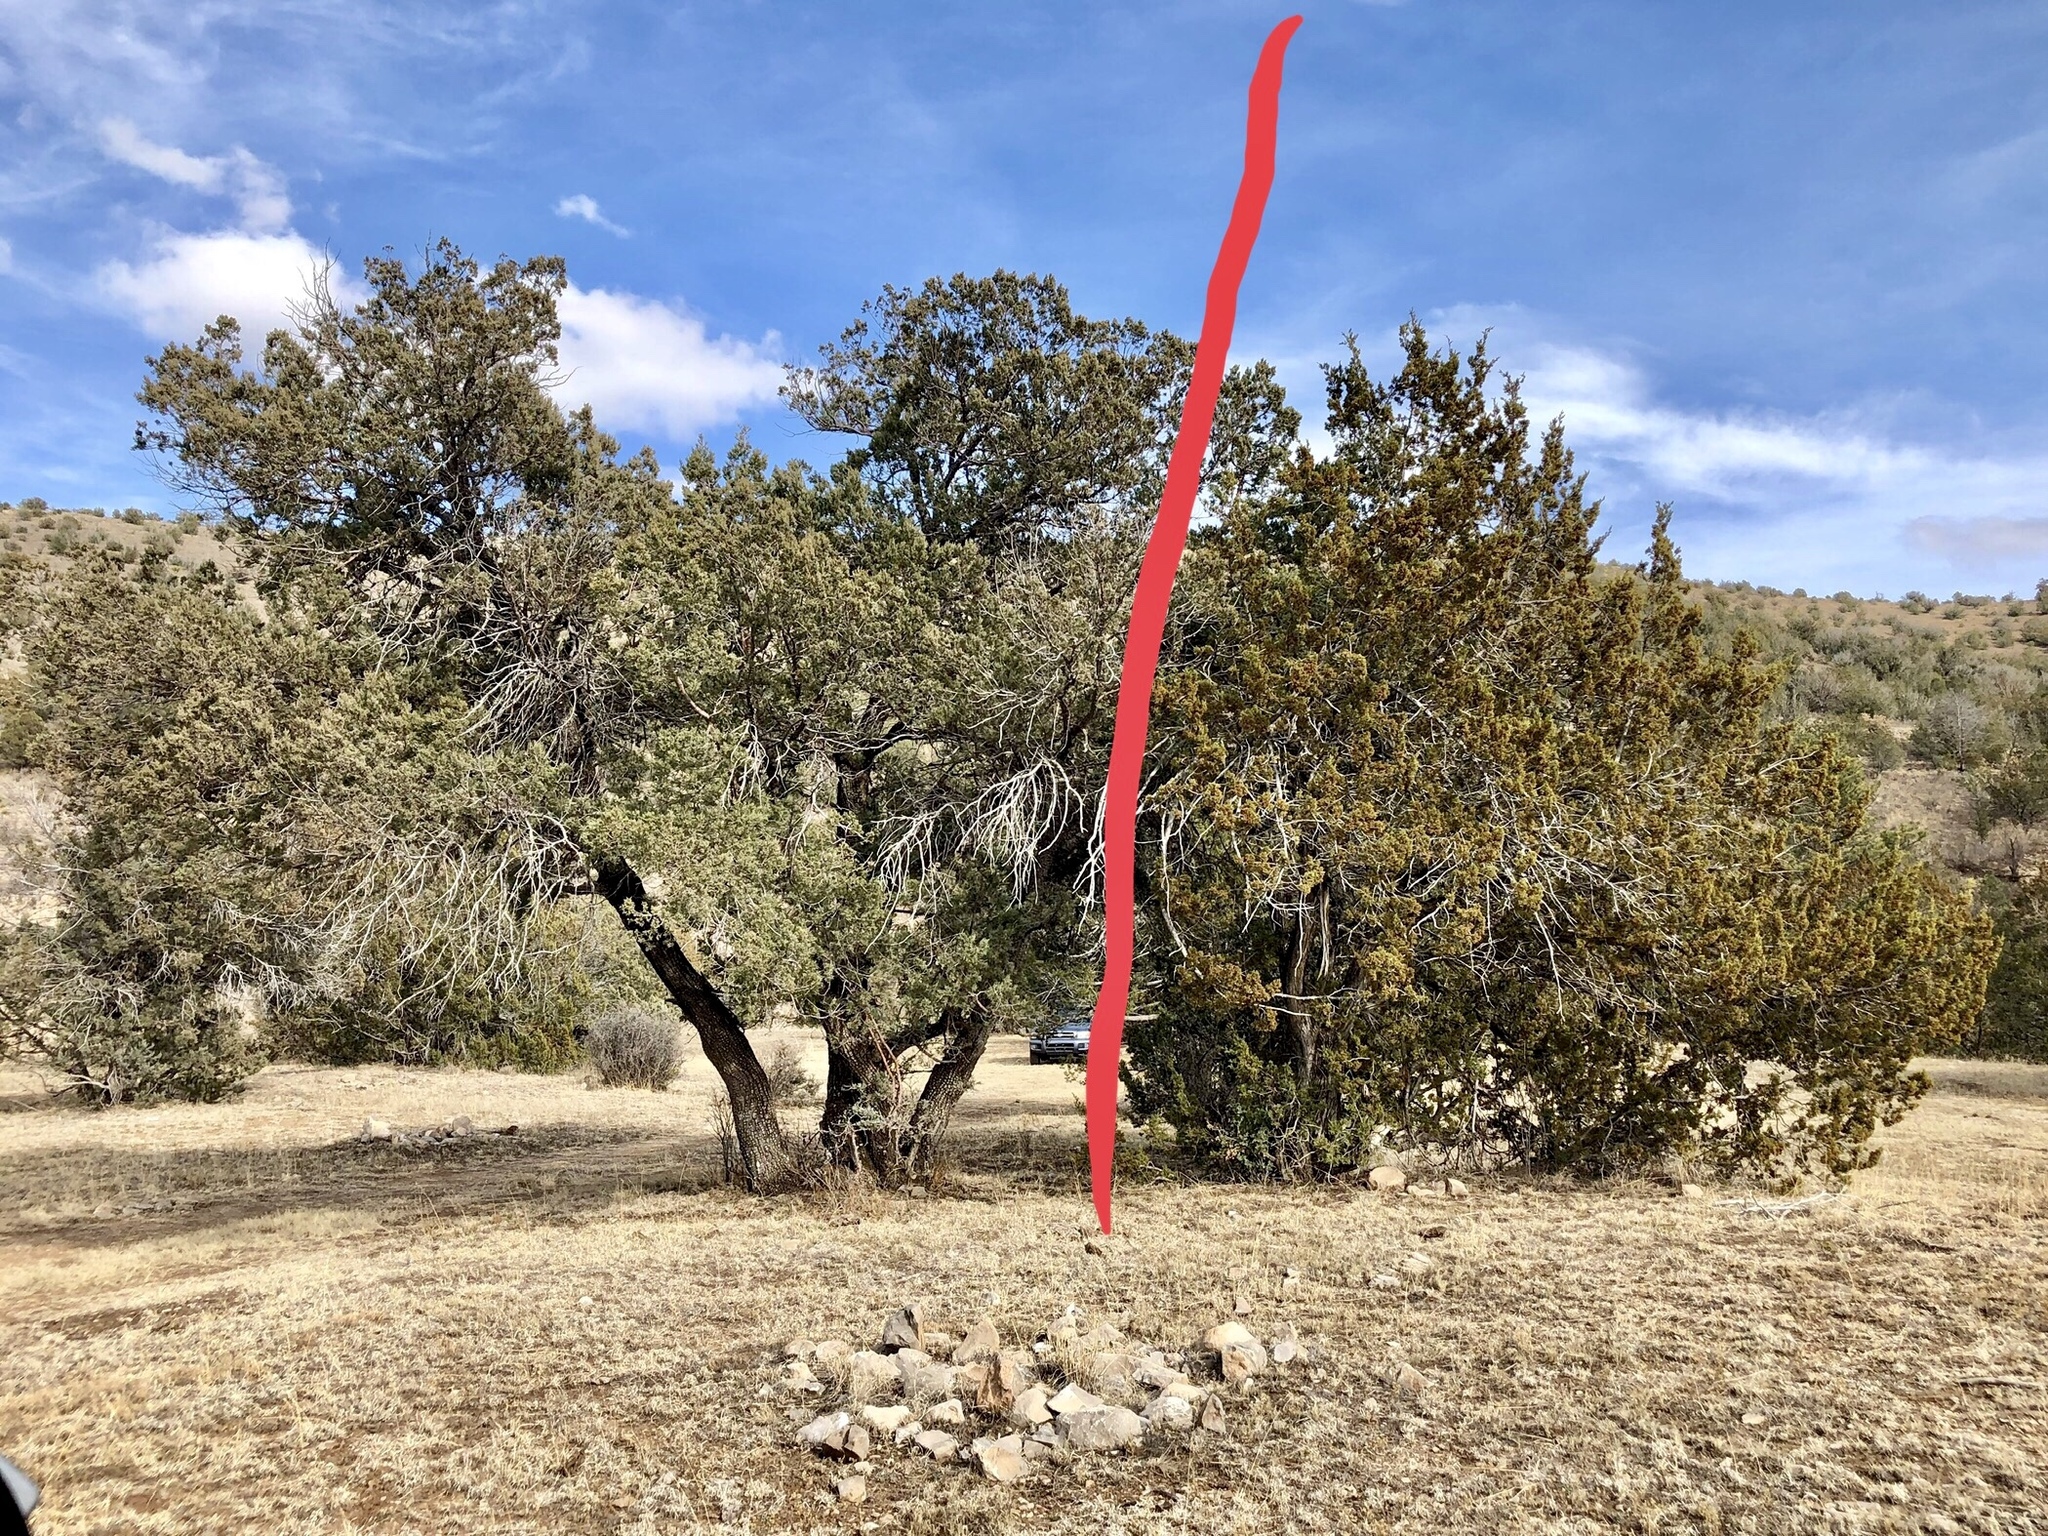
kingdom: Plantae
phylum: Tracheophyta
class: Pinopsida
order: Pinales
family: Cupressaceae
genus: Juniperus
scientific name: Juniperus monosperma
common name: One-seed juniper
